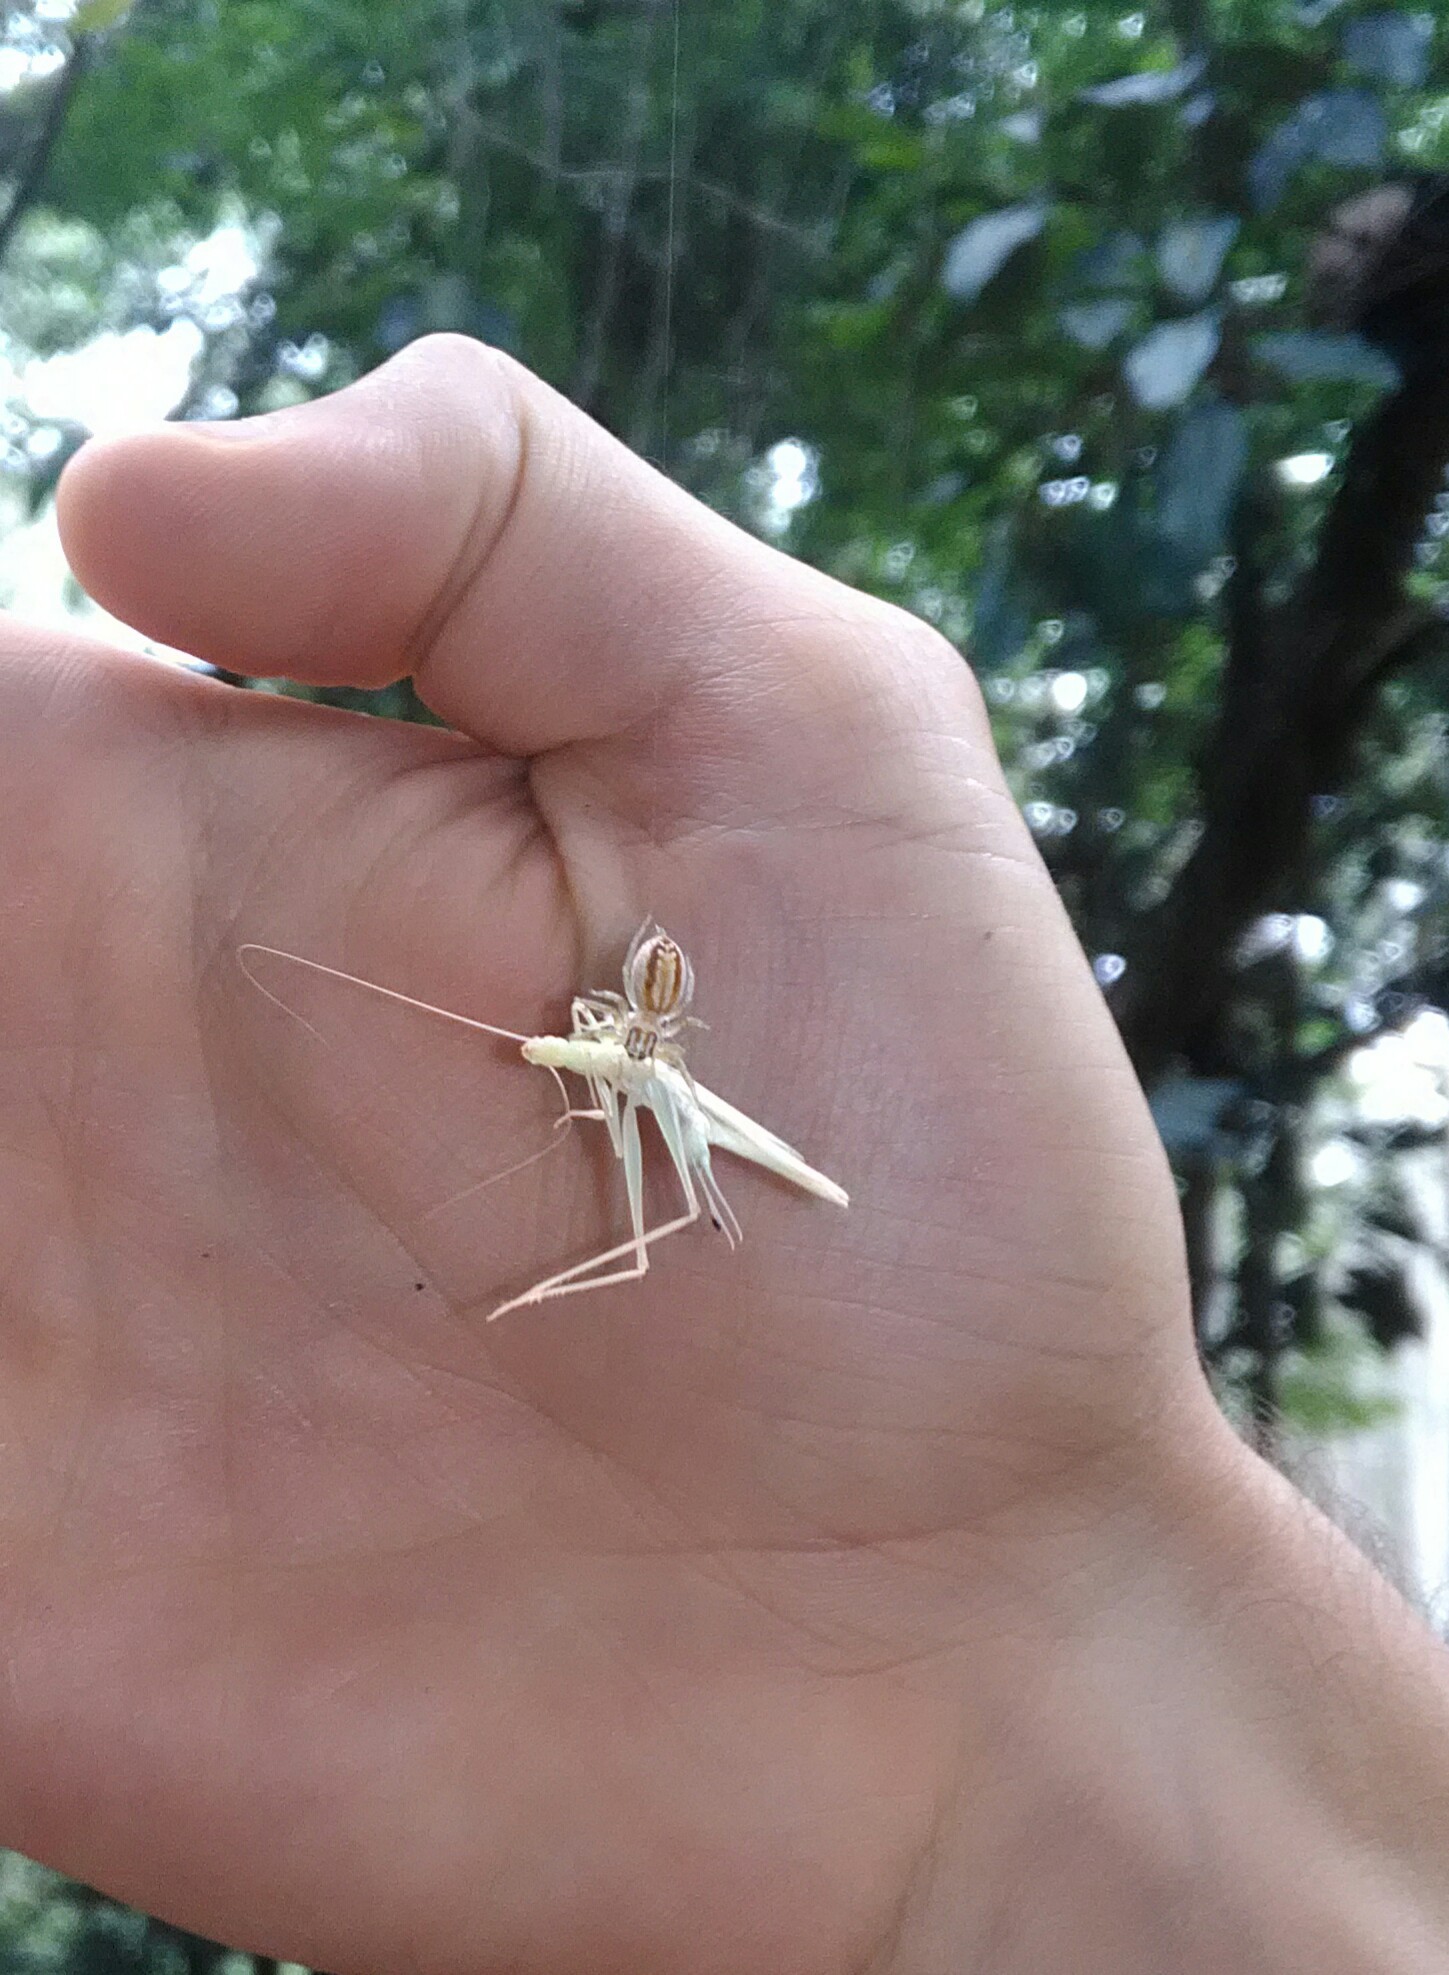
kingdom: Animalia
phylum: Arthropoda
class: Arachnida
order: Araneae
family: Salticidae
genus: Chira
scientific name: Chira simoni
